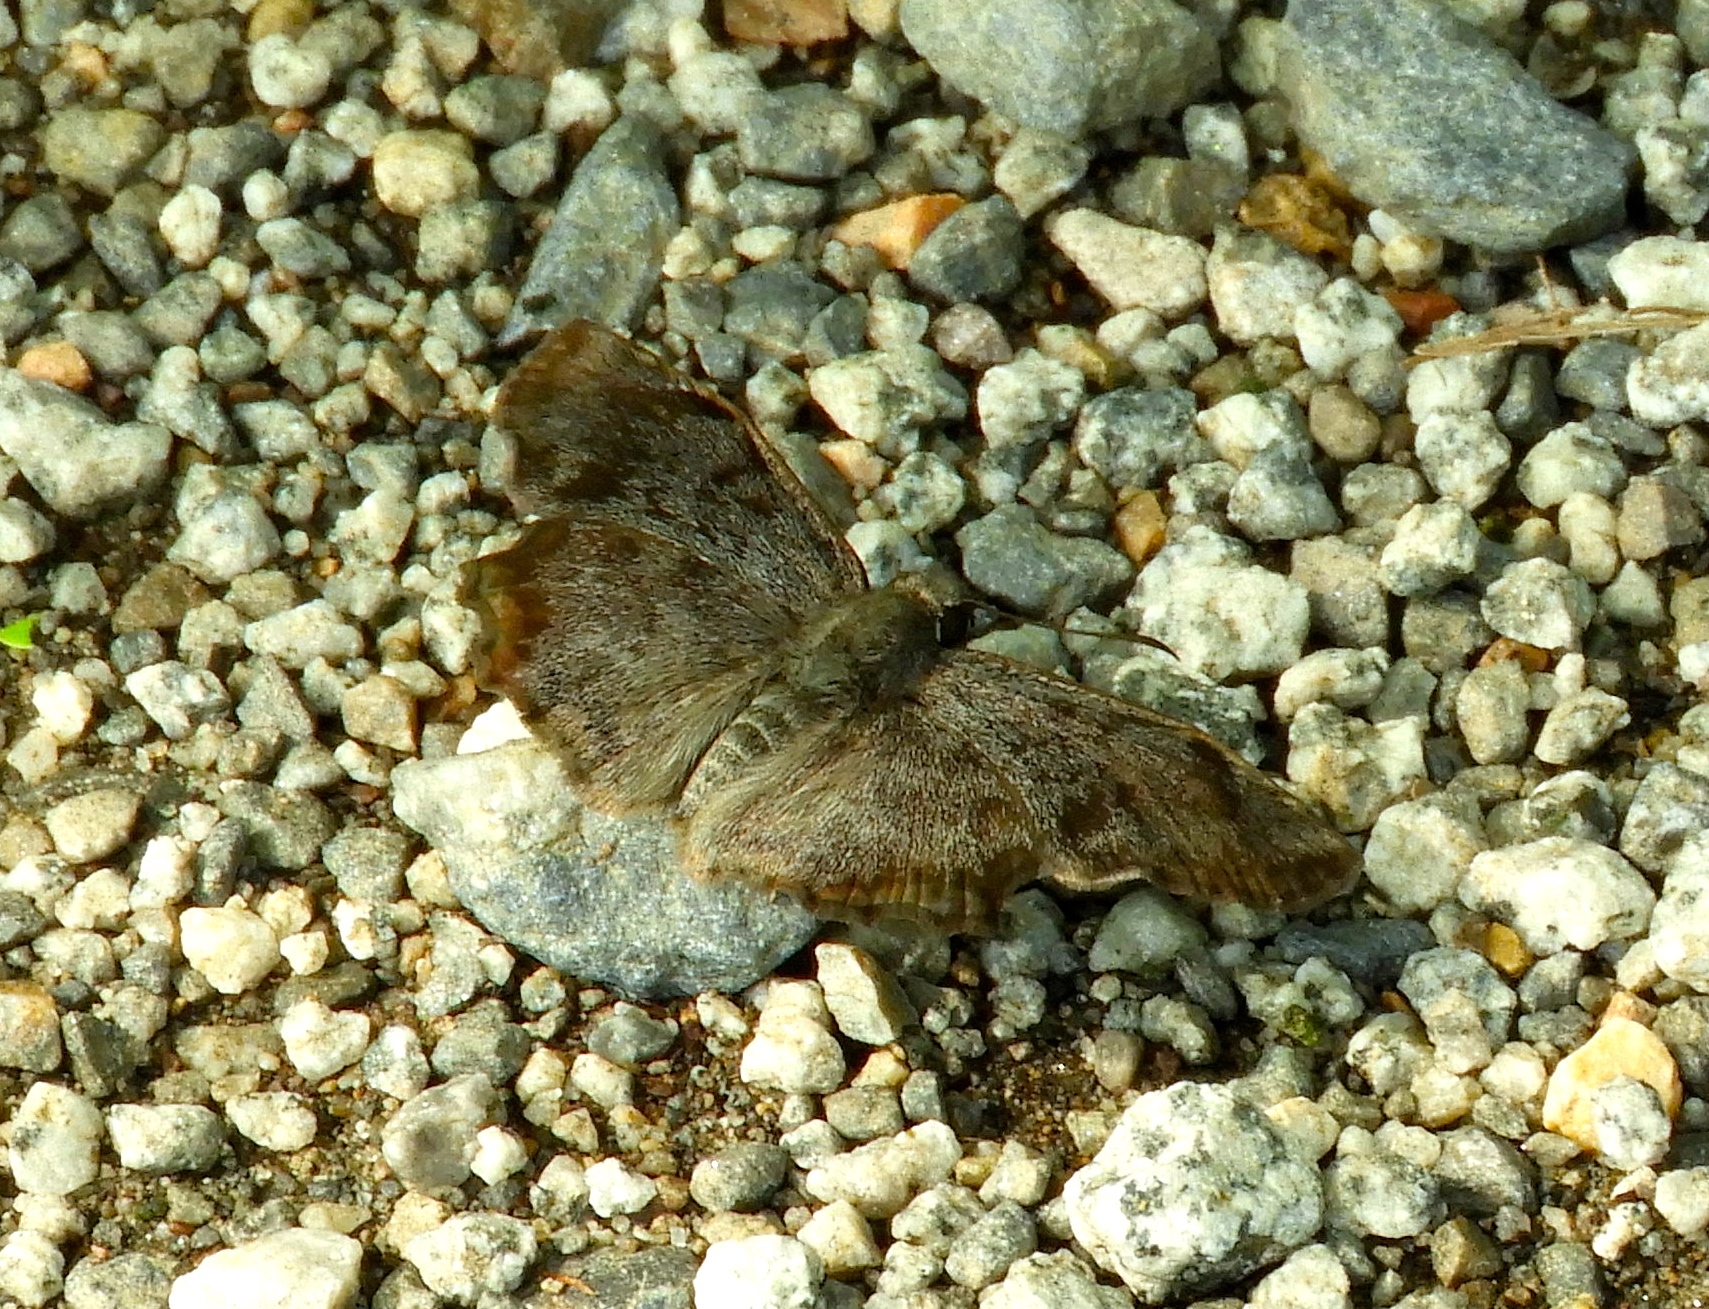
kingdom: Animalia
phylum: Arthropoda
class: Insecta
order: Lepidoptera
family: Hesperiidae
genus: Antigonus
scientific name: Antigonus erosus
